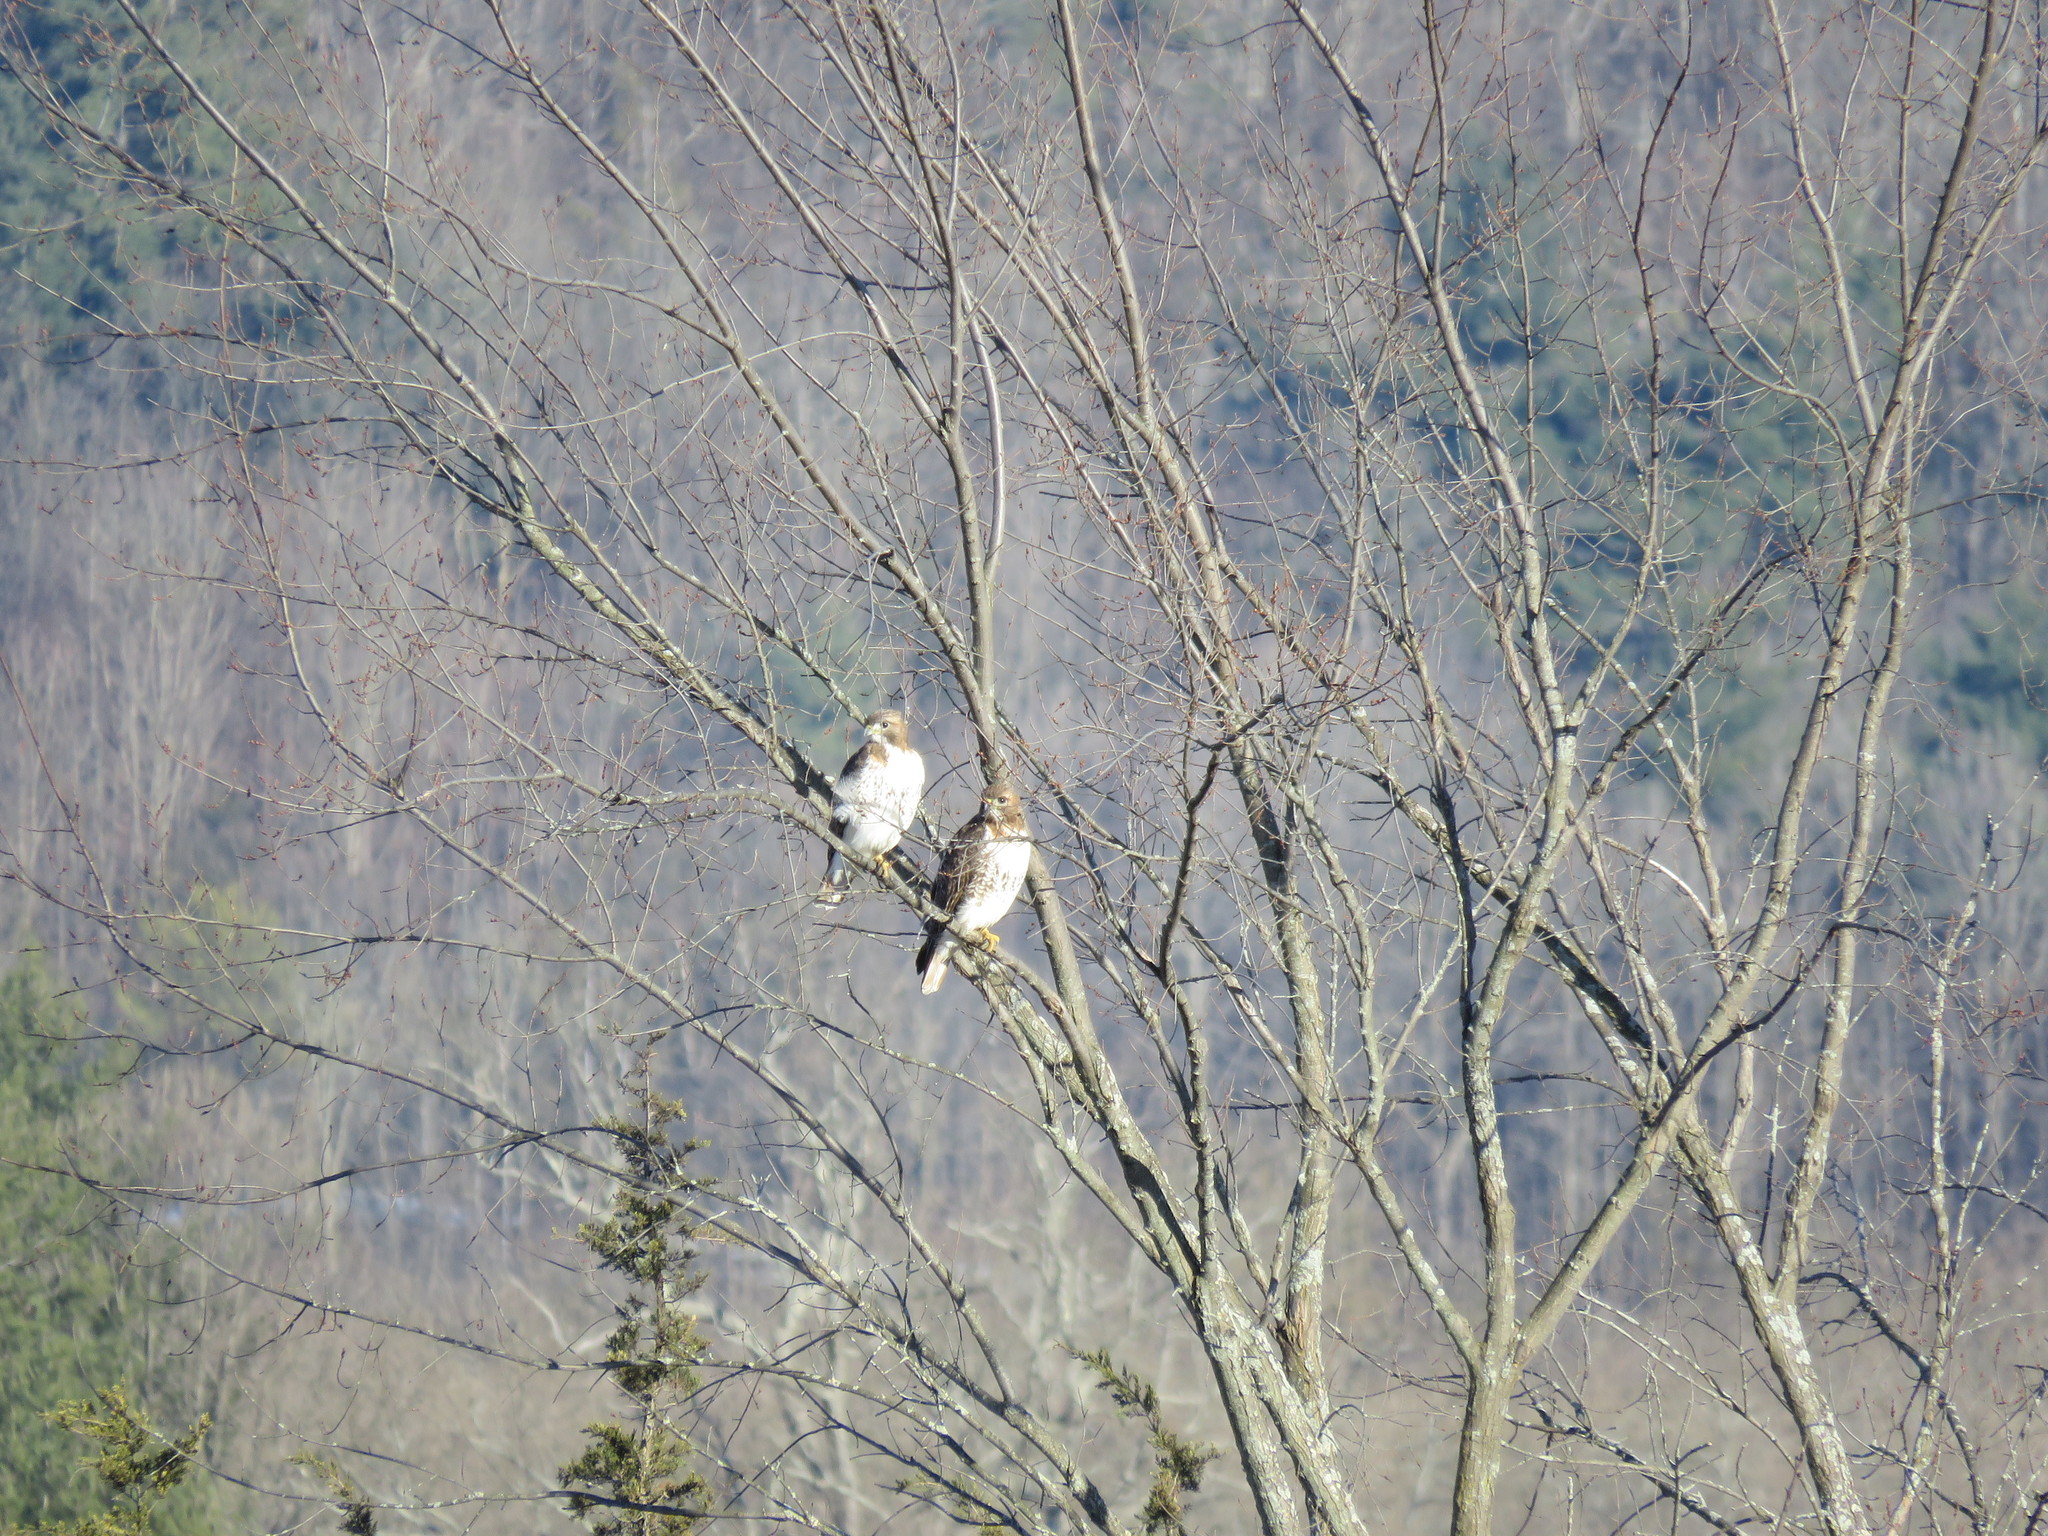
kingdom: Animalia
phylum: Chordata
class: Aves
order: Accipitriformes
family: Accipitridae
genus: Buteo
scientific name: Buteo jamaicensis
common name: Red-tailed hawk
